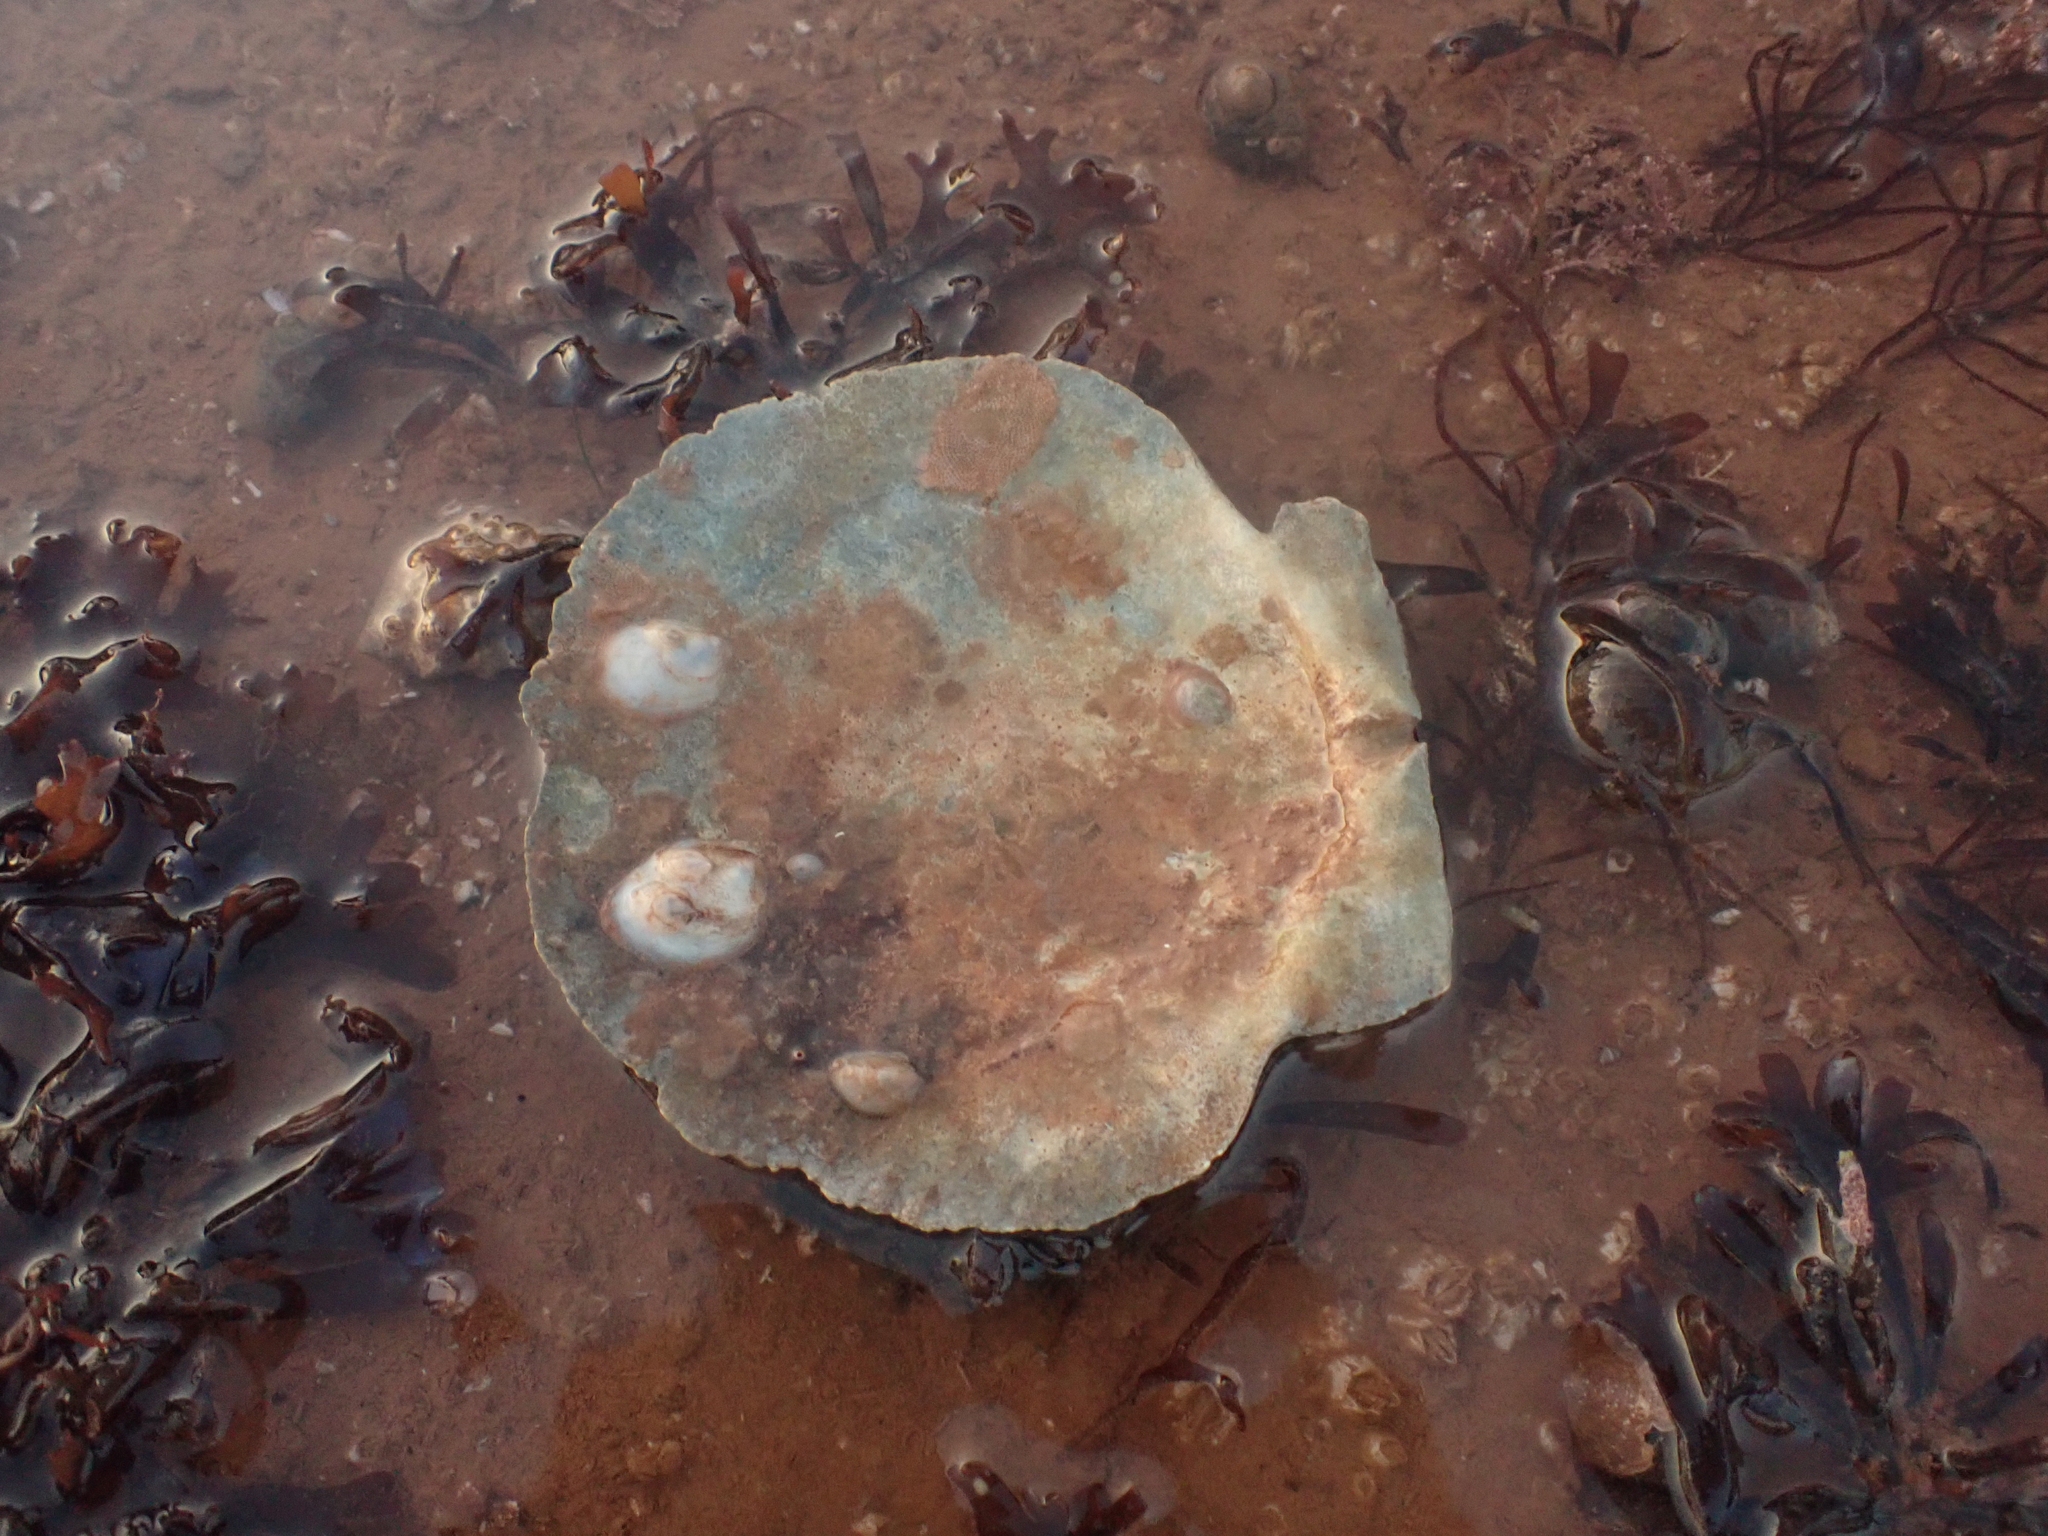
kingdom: Animalia
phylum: Mollusca
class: Bivalvia
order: Pectinida
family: Pectinidae
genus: Placopecten
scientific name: Placopecten magellanicus
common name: American sea scallop
